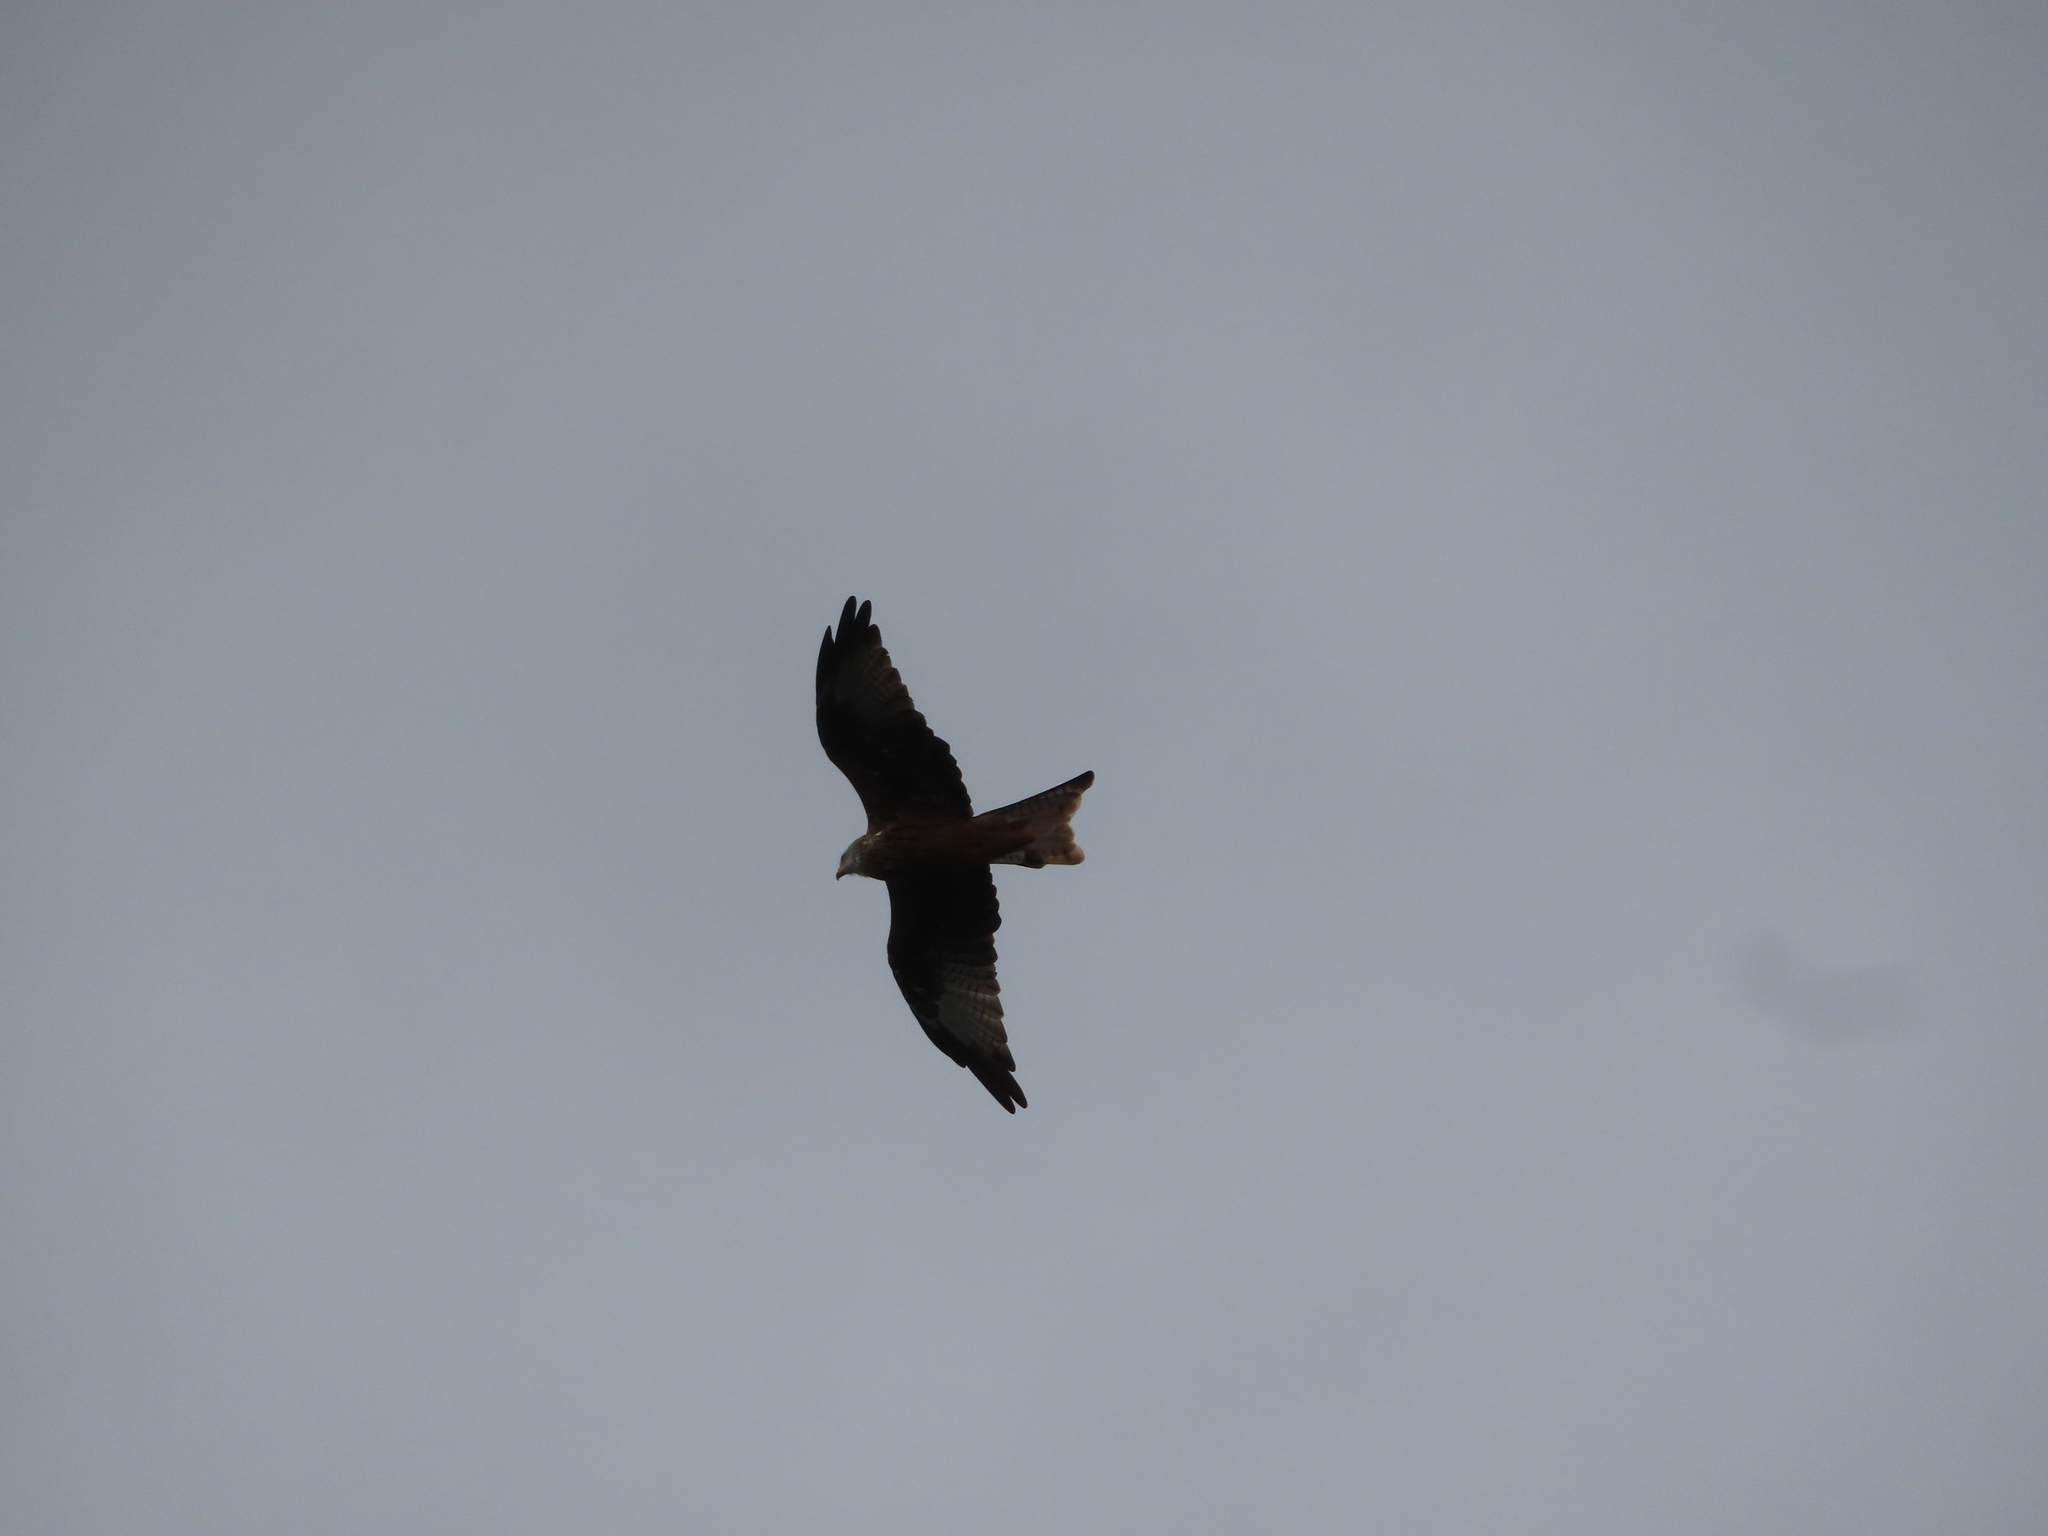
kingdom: Animalia
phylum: Chordata
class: Aves
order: Accipitriformes
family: Accipitridae
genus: Milvus
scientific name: Milvus milvus
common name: Red kite
